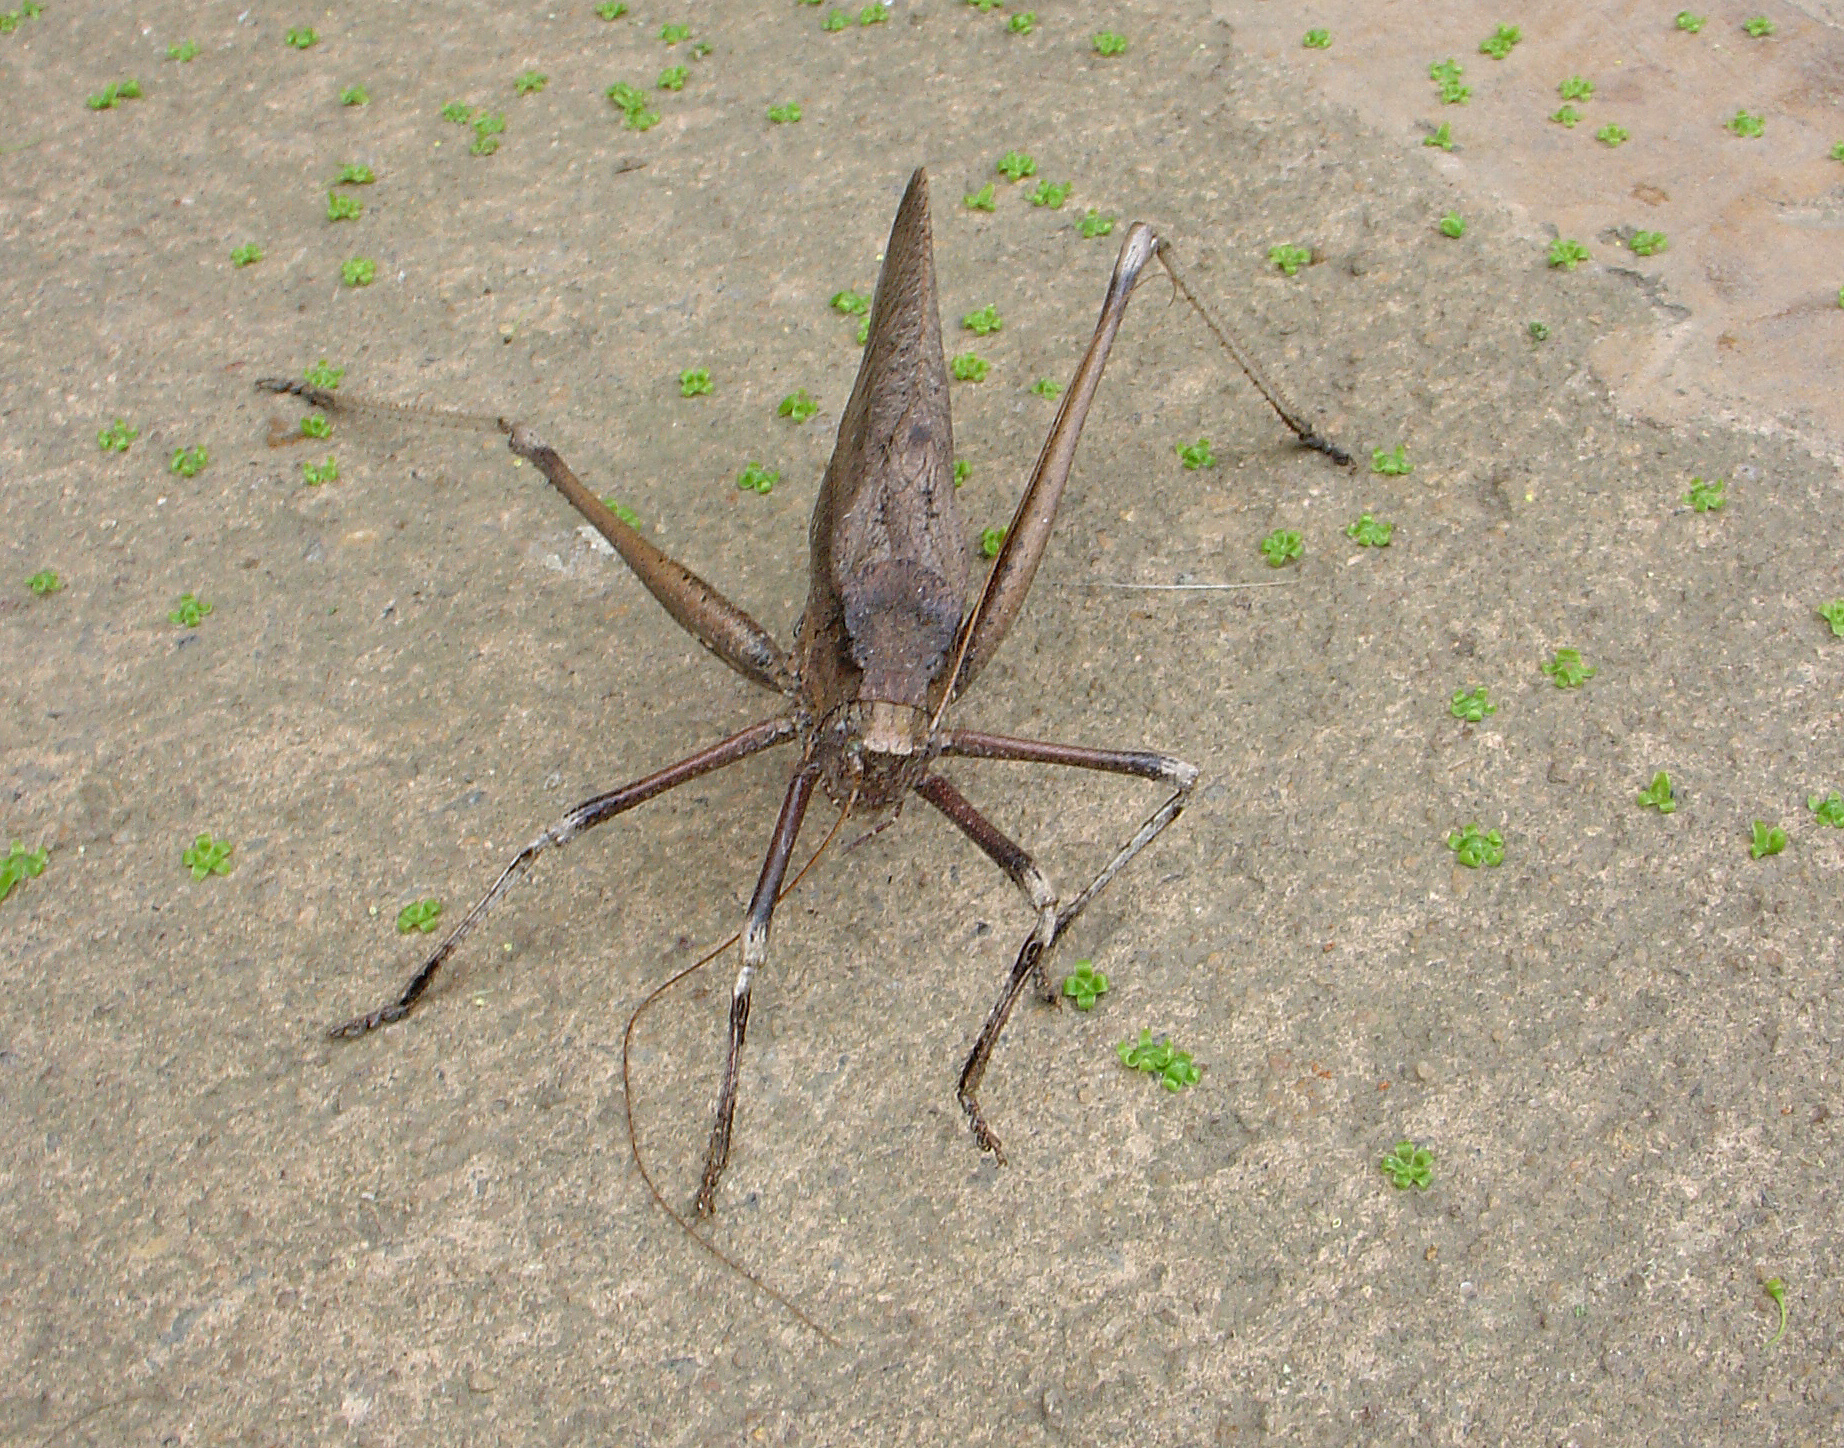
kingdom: Animalia
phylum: Arthropoda
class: Insecta
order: Orthoptera
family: Tettigoniidae
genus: Anoedopoda
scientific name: Anoedopoda lamellata
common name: African mecopod
